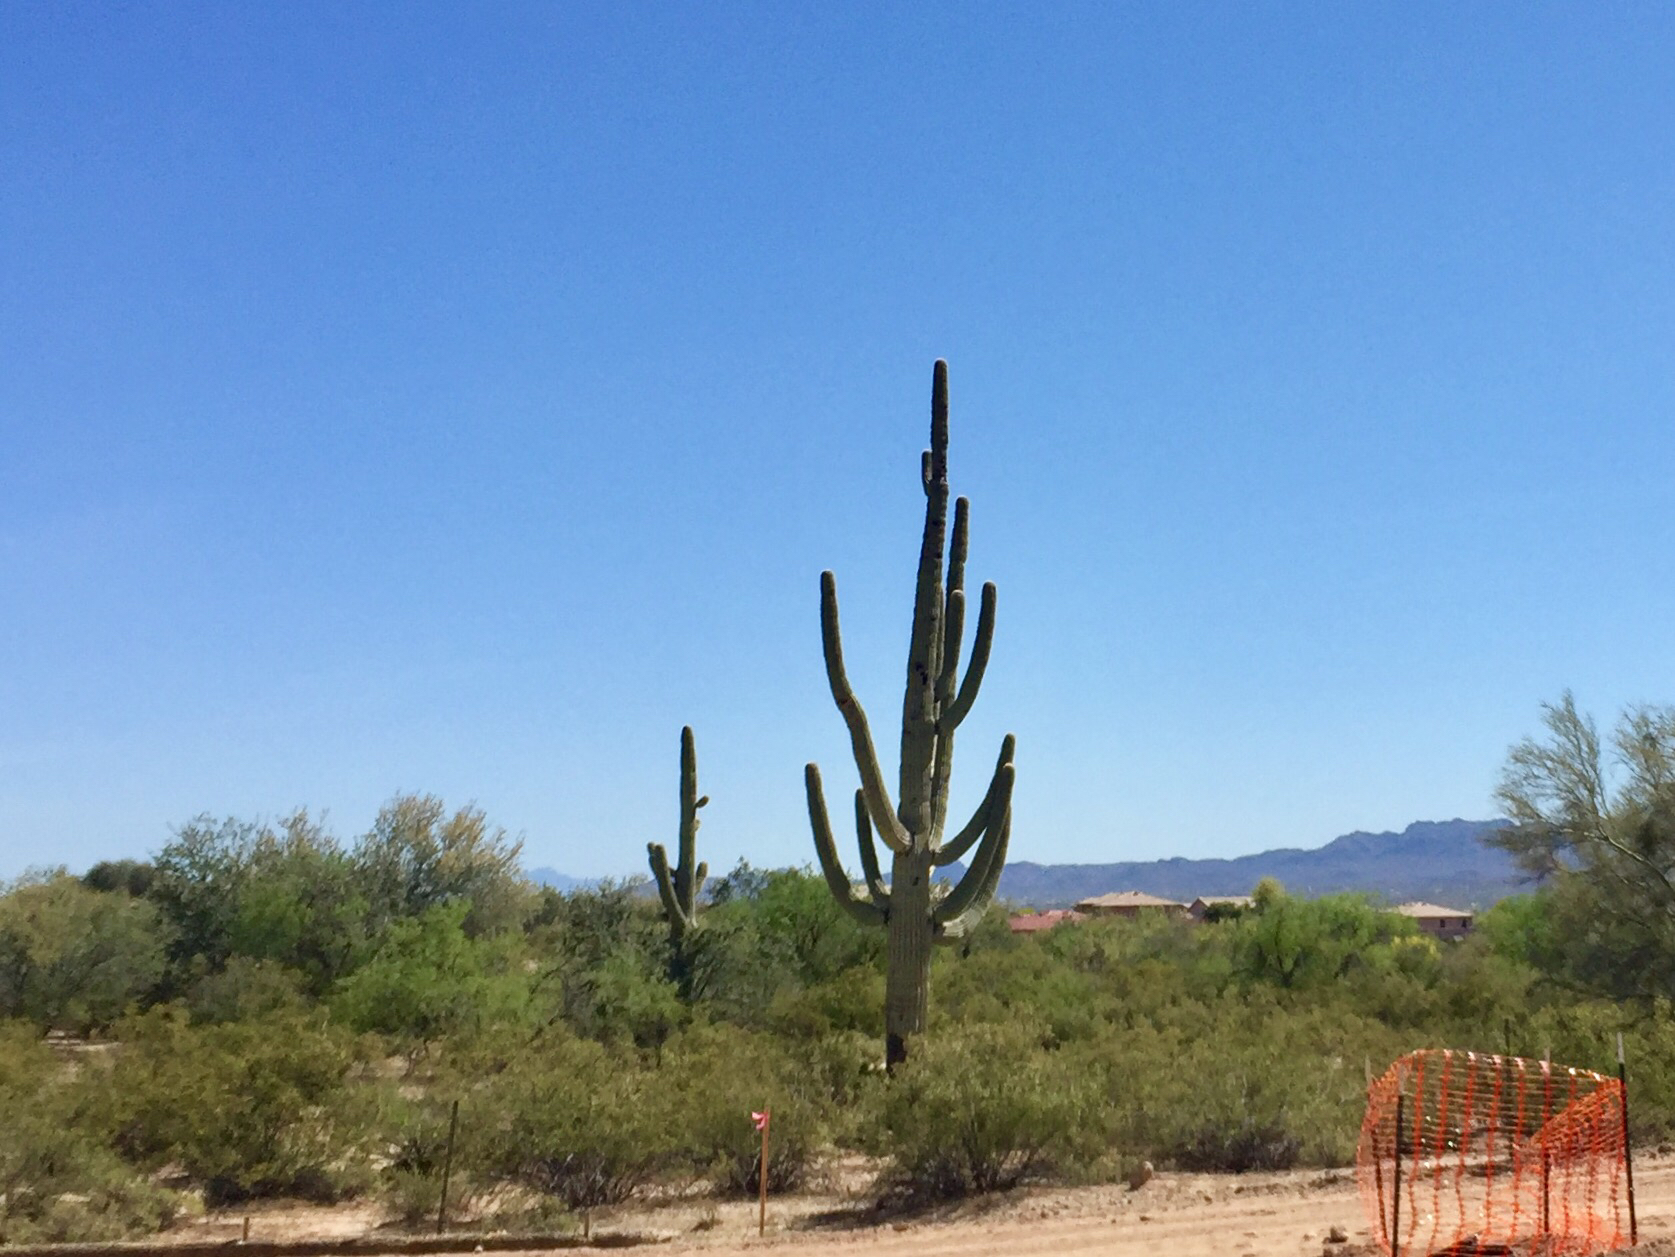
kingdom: Plantae
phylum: Tracheophyta
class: Magnoliopsida
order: Caryophyllales
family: Cactaceae
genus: Carnegiea
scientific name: Carnegiea gigantea
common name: Saguaro
